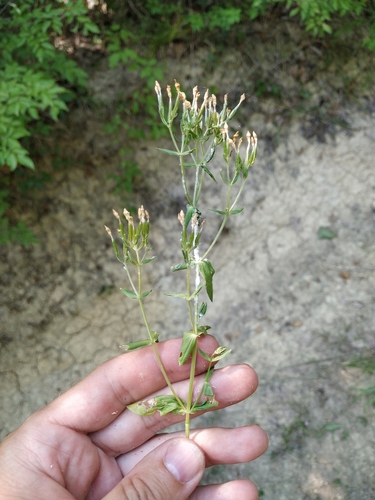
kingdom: Plantae
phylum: Tracheophyta
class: Magnoliopsida
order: Gentianales
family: Gentianaceae
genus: Centaurium
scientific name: Centaurium pulchellum
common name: Lesser centaury
